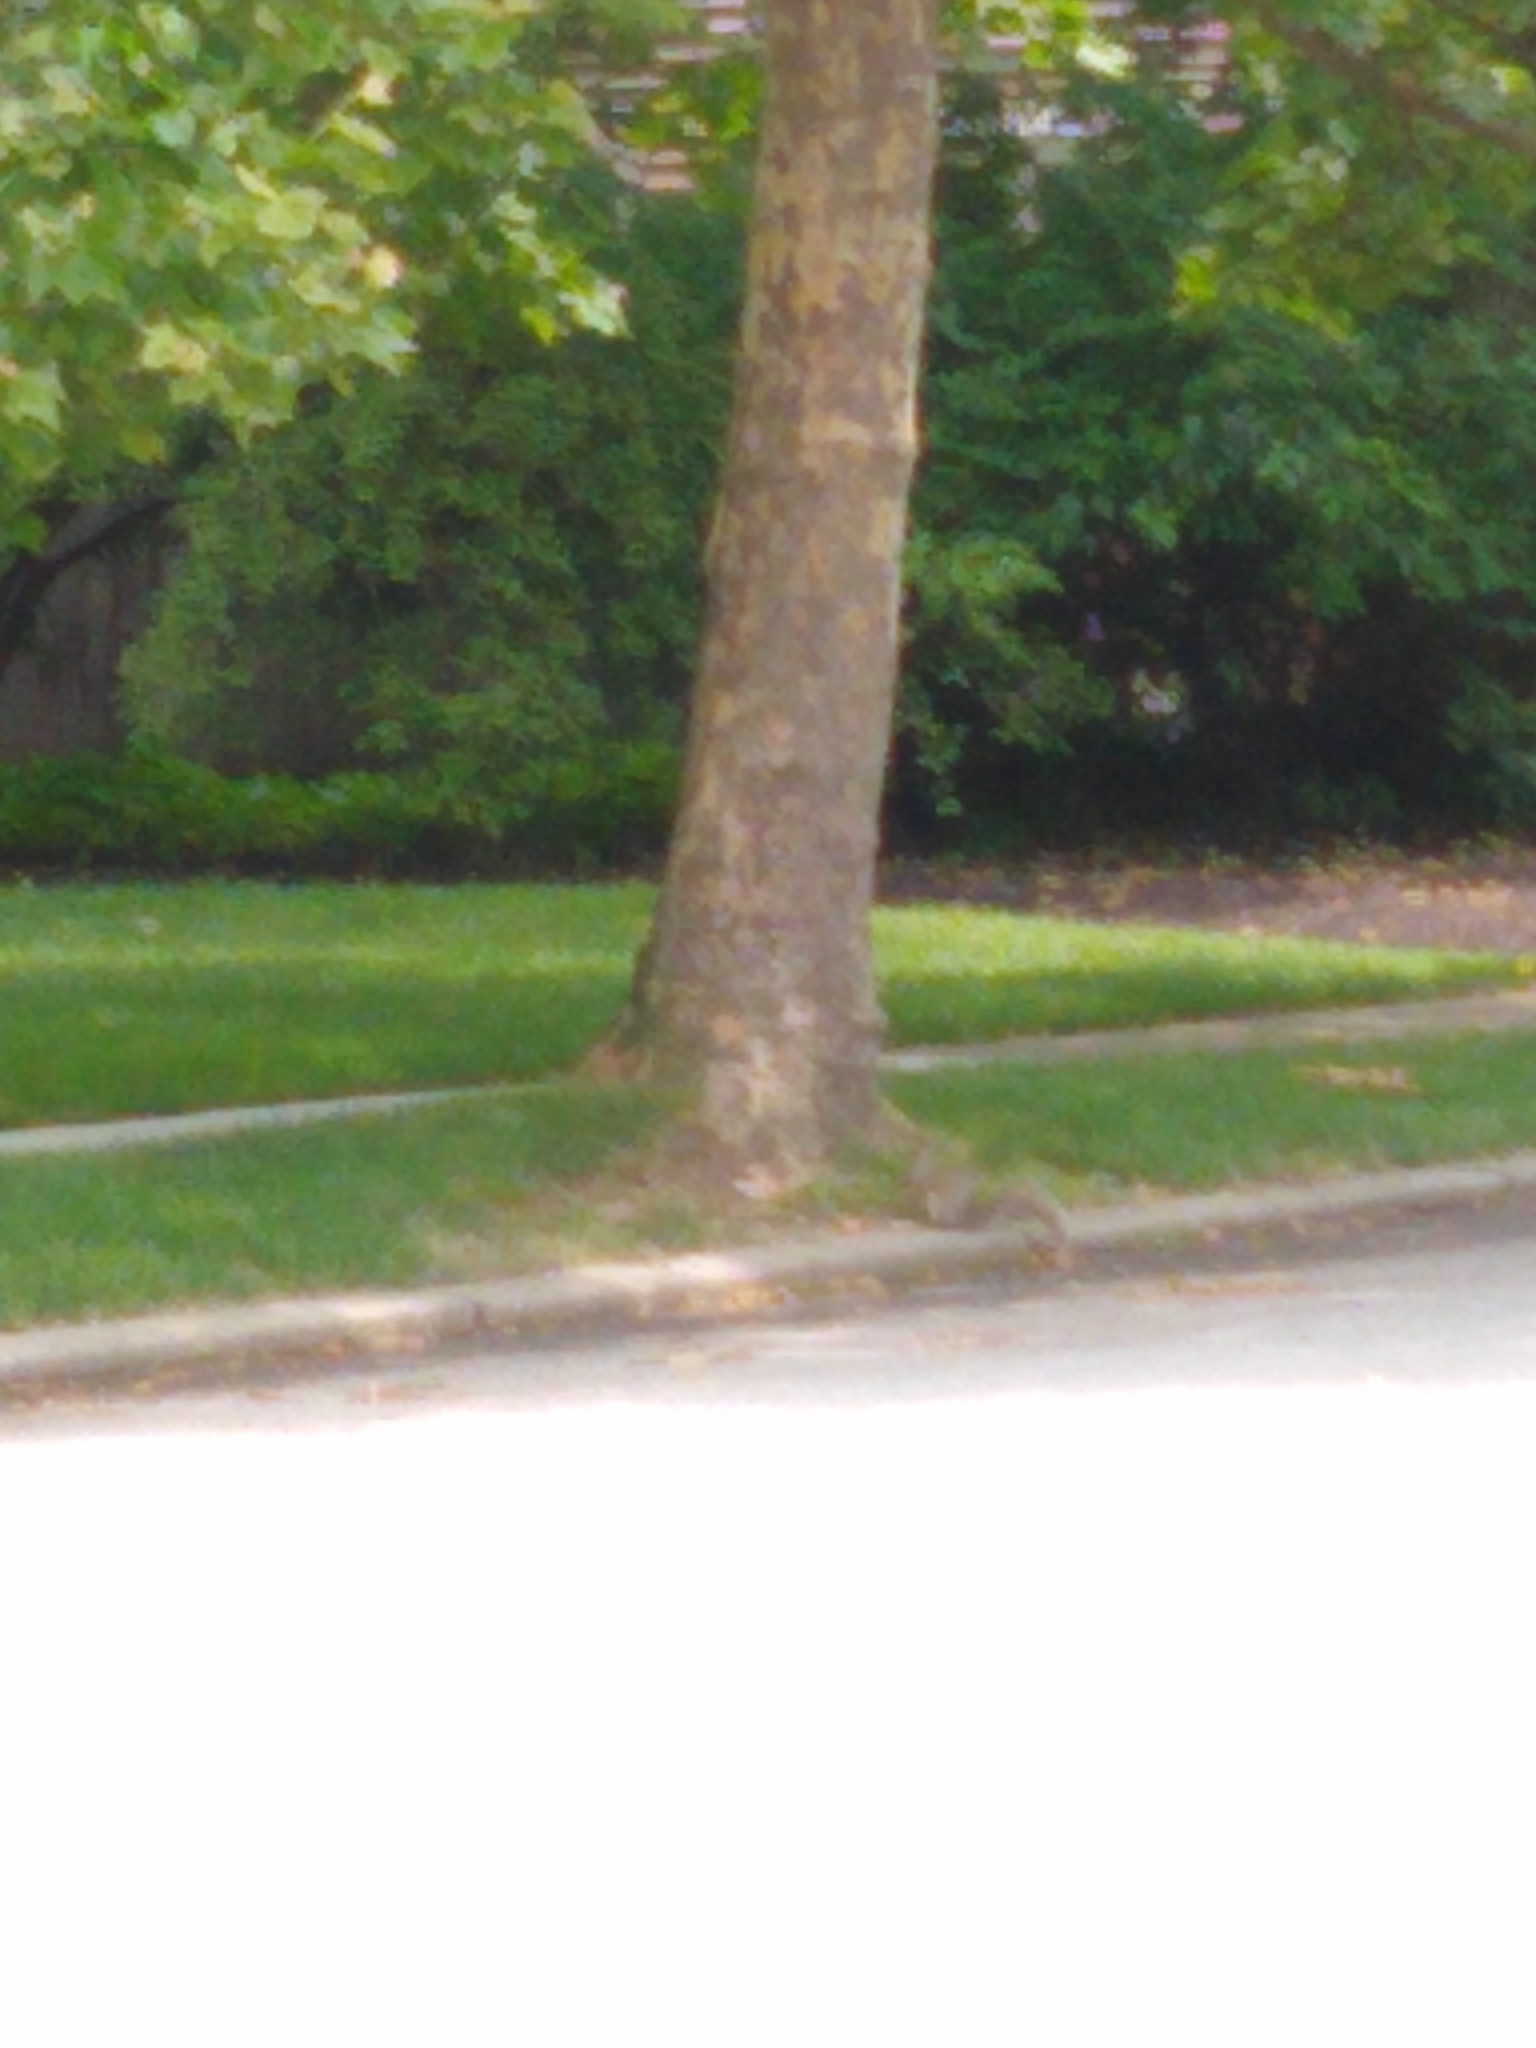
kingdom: Animalia
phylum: Chordata
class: Mammalia
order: Rodentia
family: Sciuridae
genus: Sciurus
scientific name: Sciurus carolinensis
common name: Eastern gray squirrel
